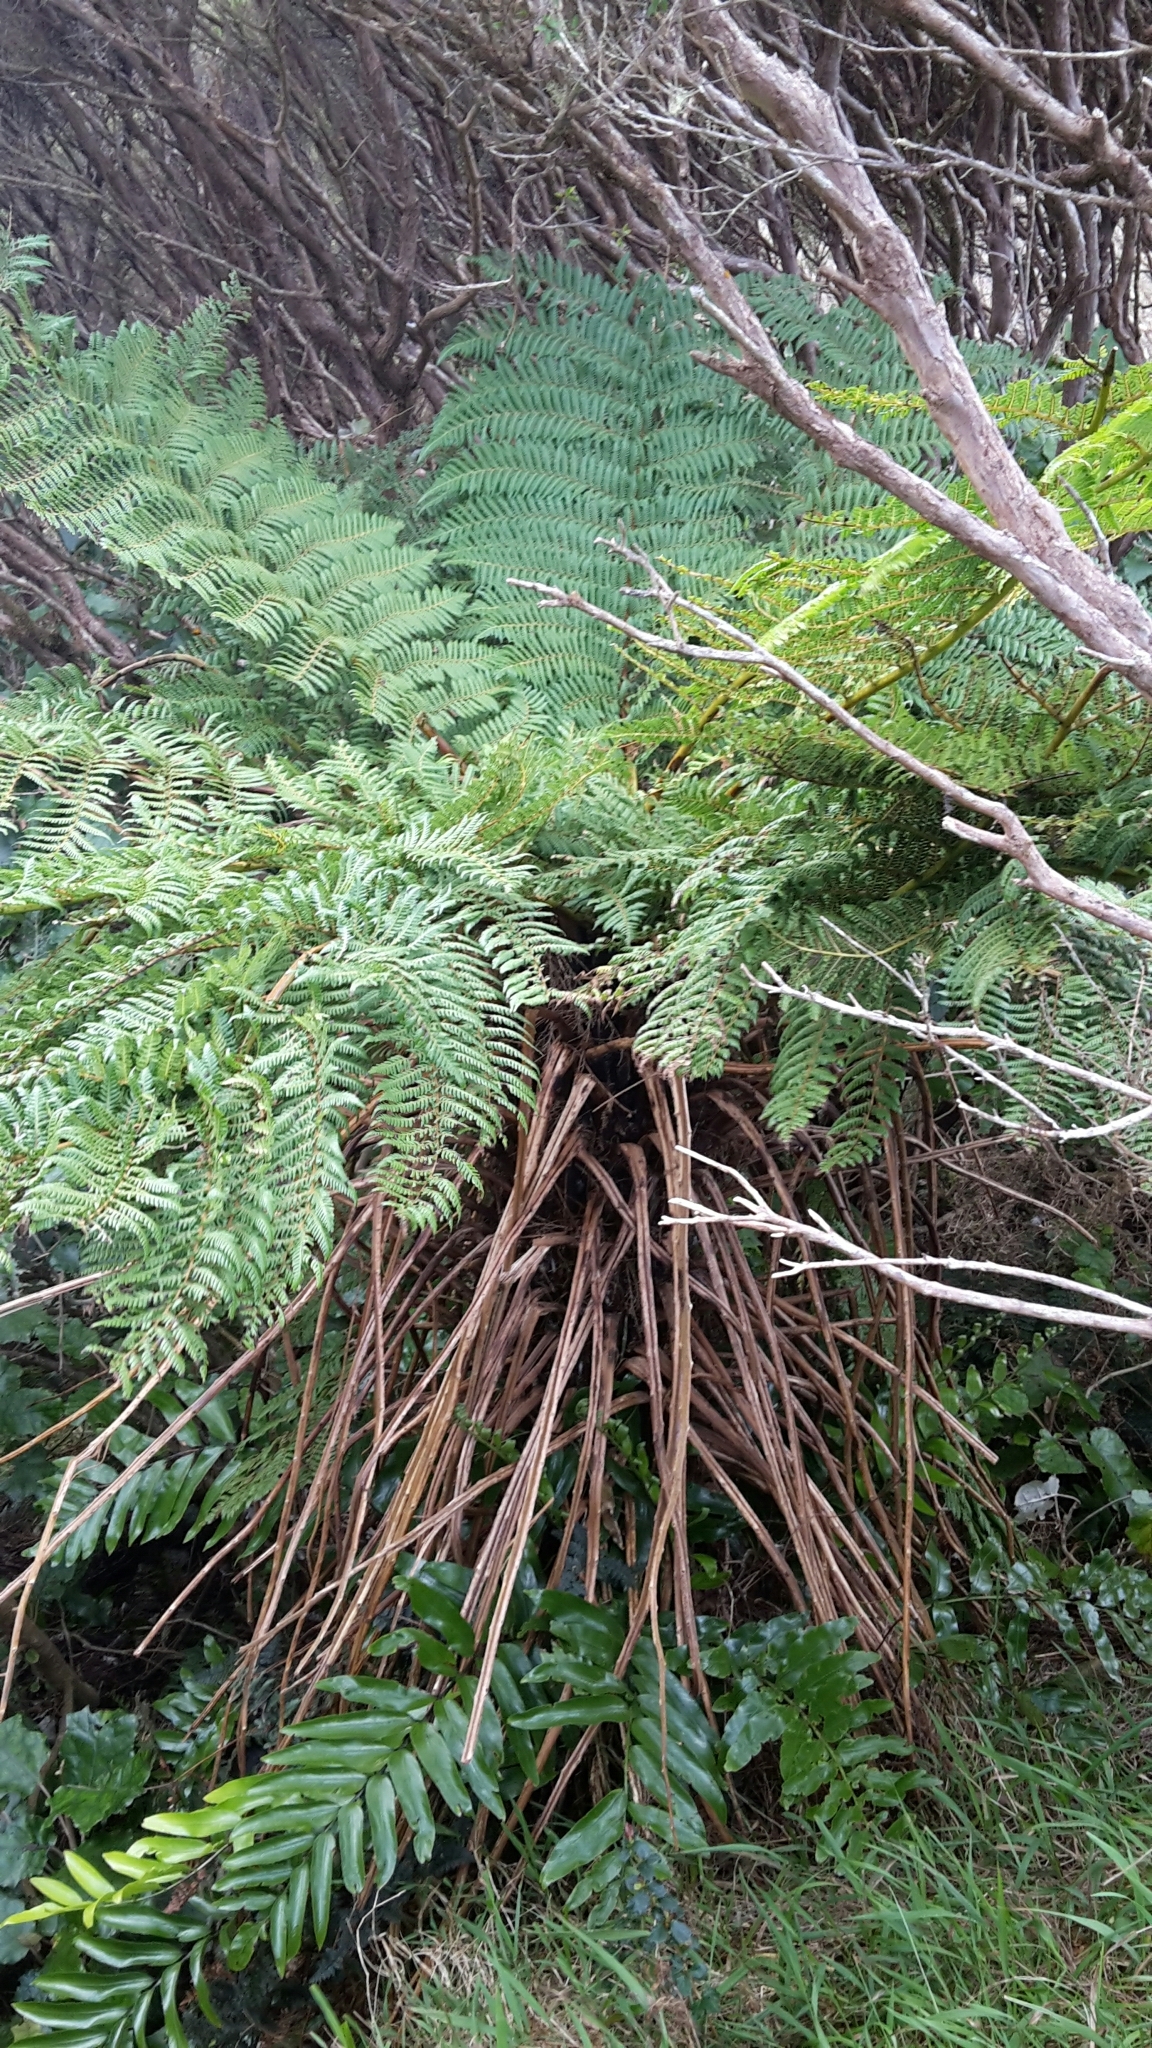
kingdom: Plantae
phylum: Tracheophyta
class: Polypodiopsida
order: Cyatheales
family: Cyatheaceae
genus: Alsophila
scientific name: Alsophila smithii
